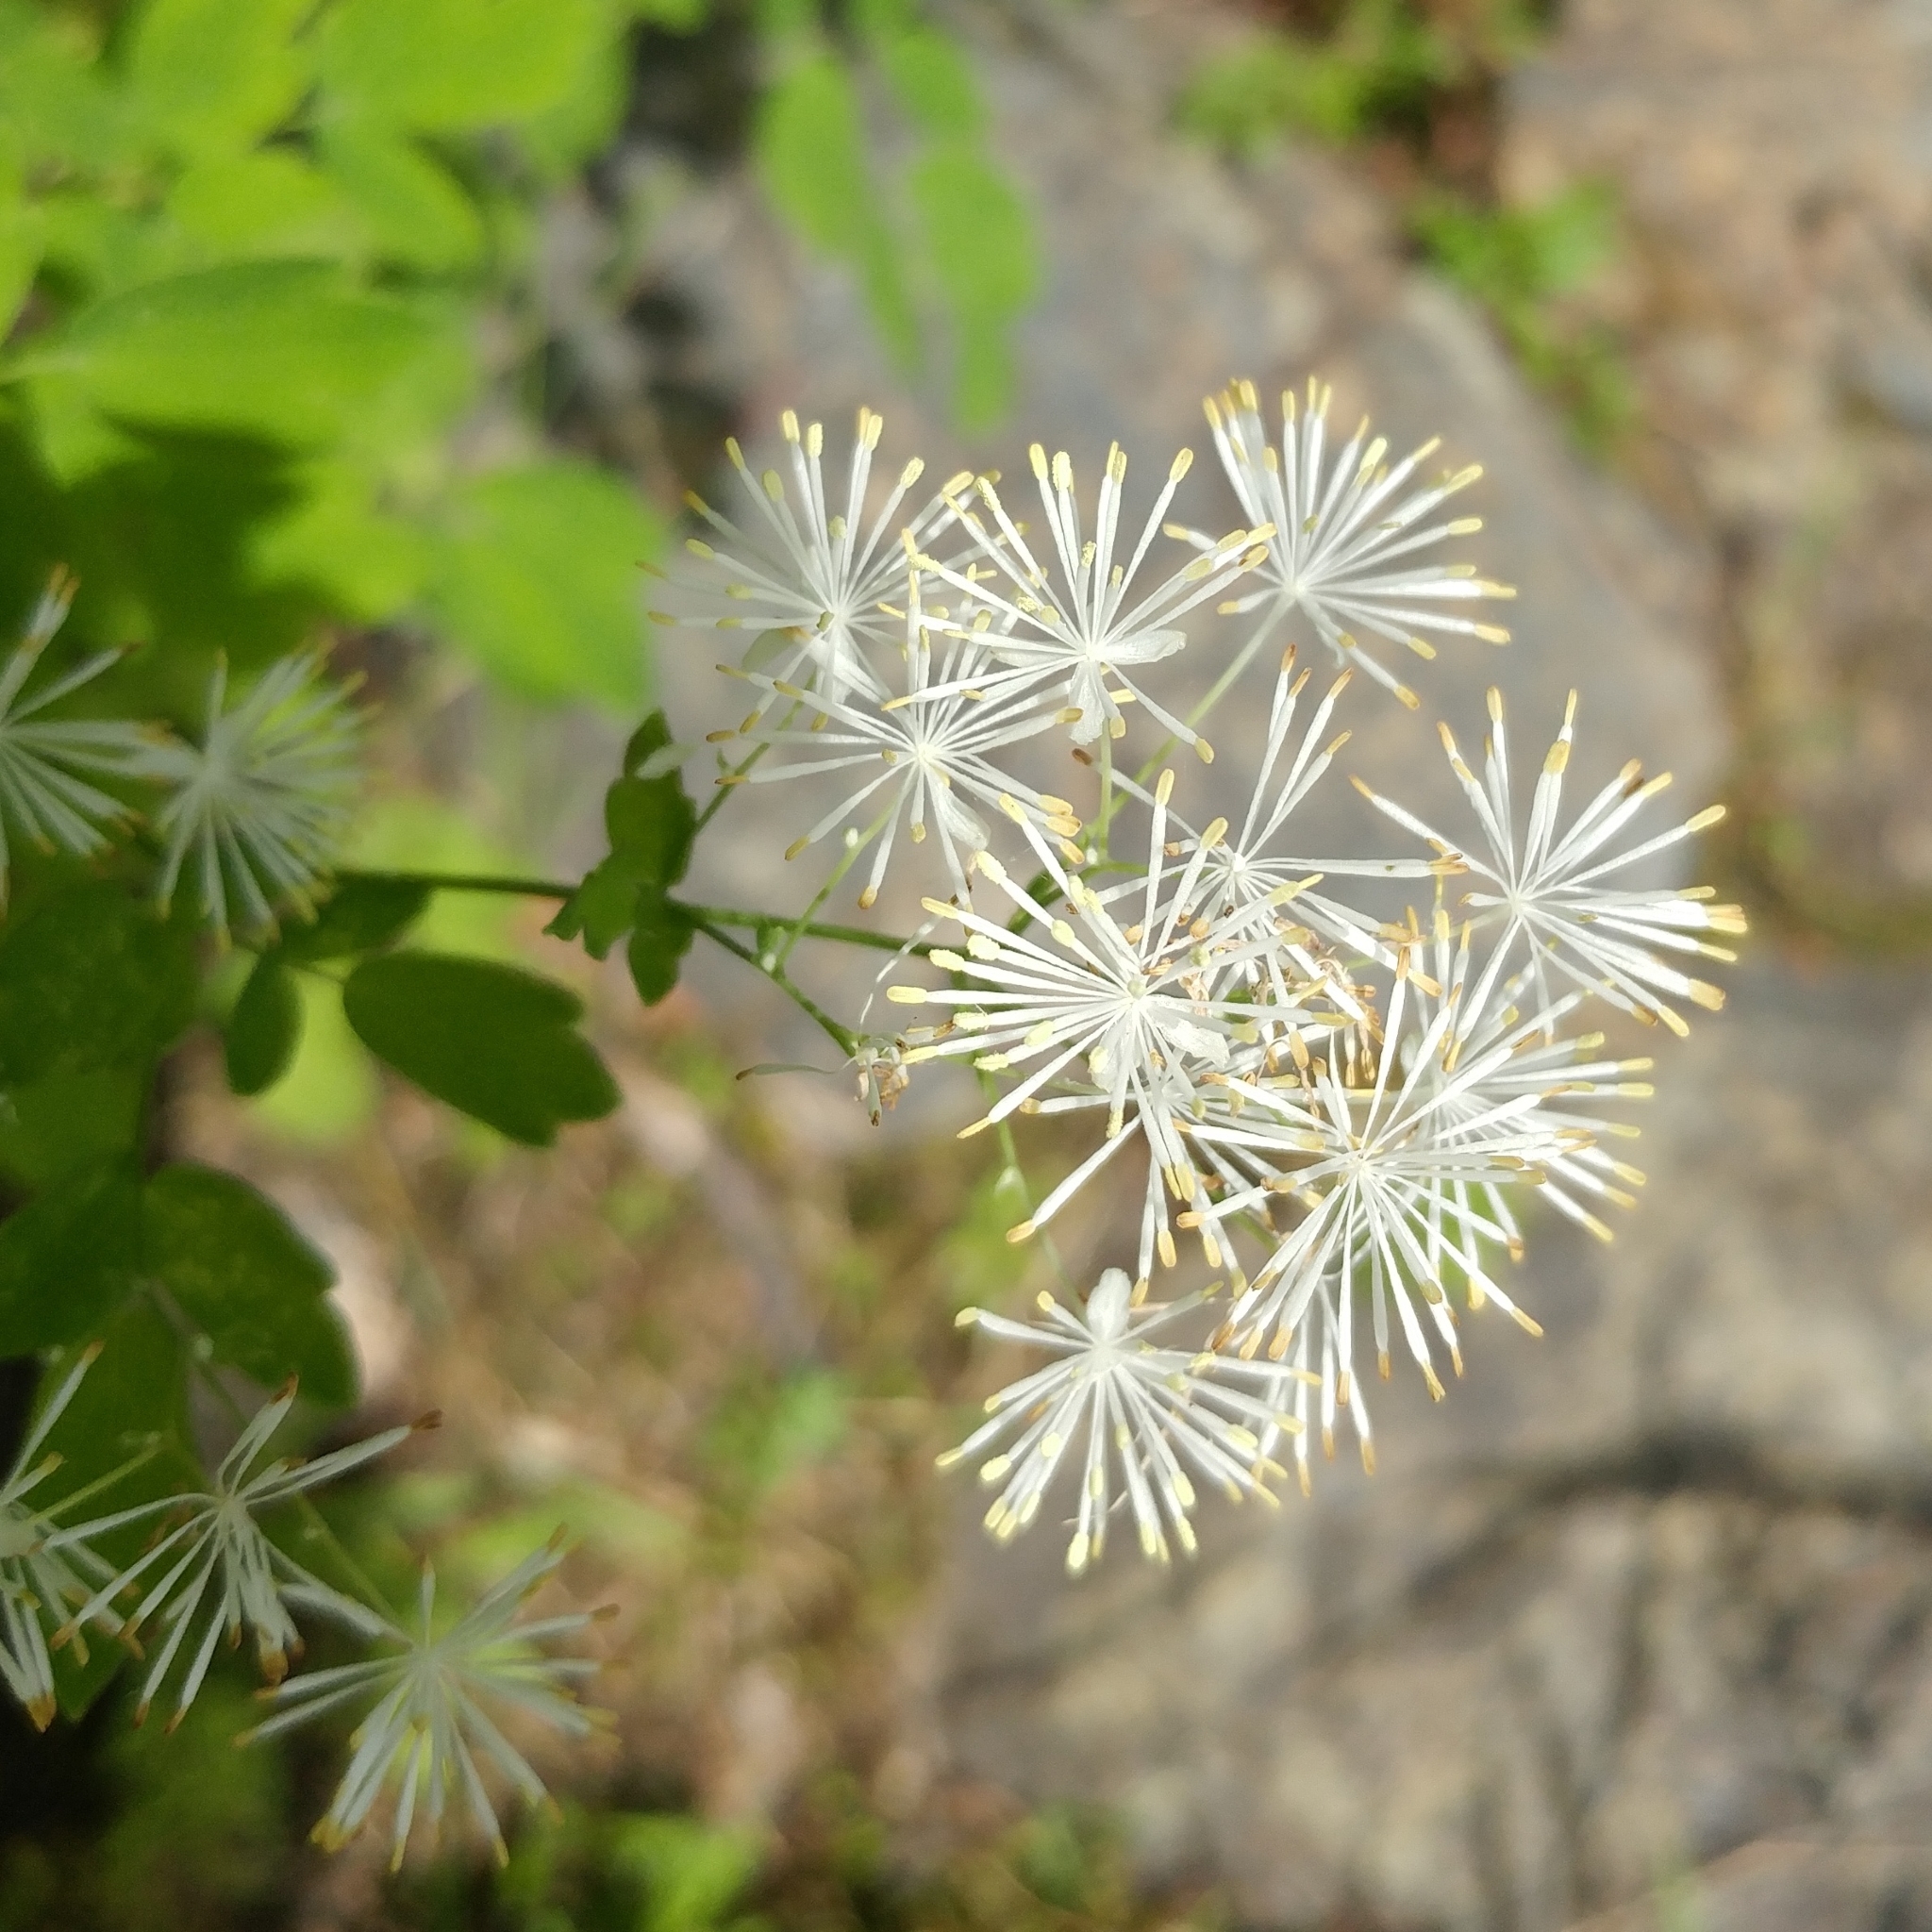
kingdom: Plantae
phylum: Tracheophyta
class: Magnoliopsida
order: Ranunculales
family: Ranunculaceae
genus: Thalictrum
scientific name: Thalictrum pubescens
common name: King-of-the-meadow
